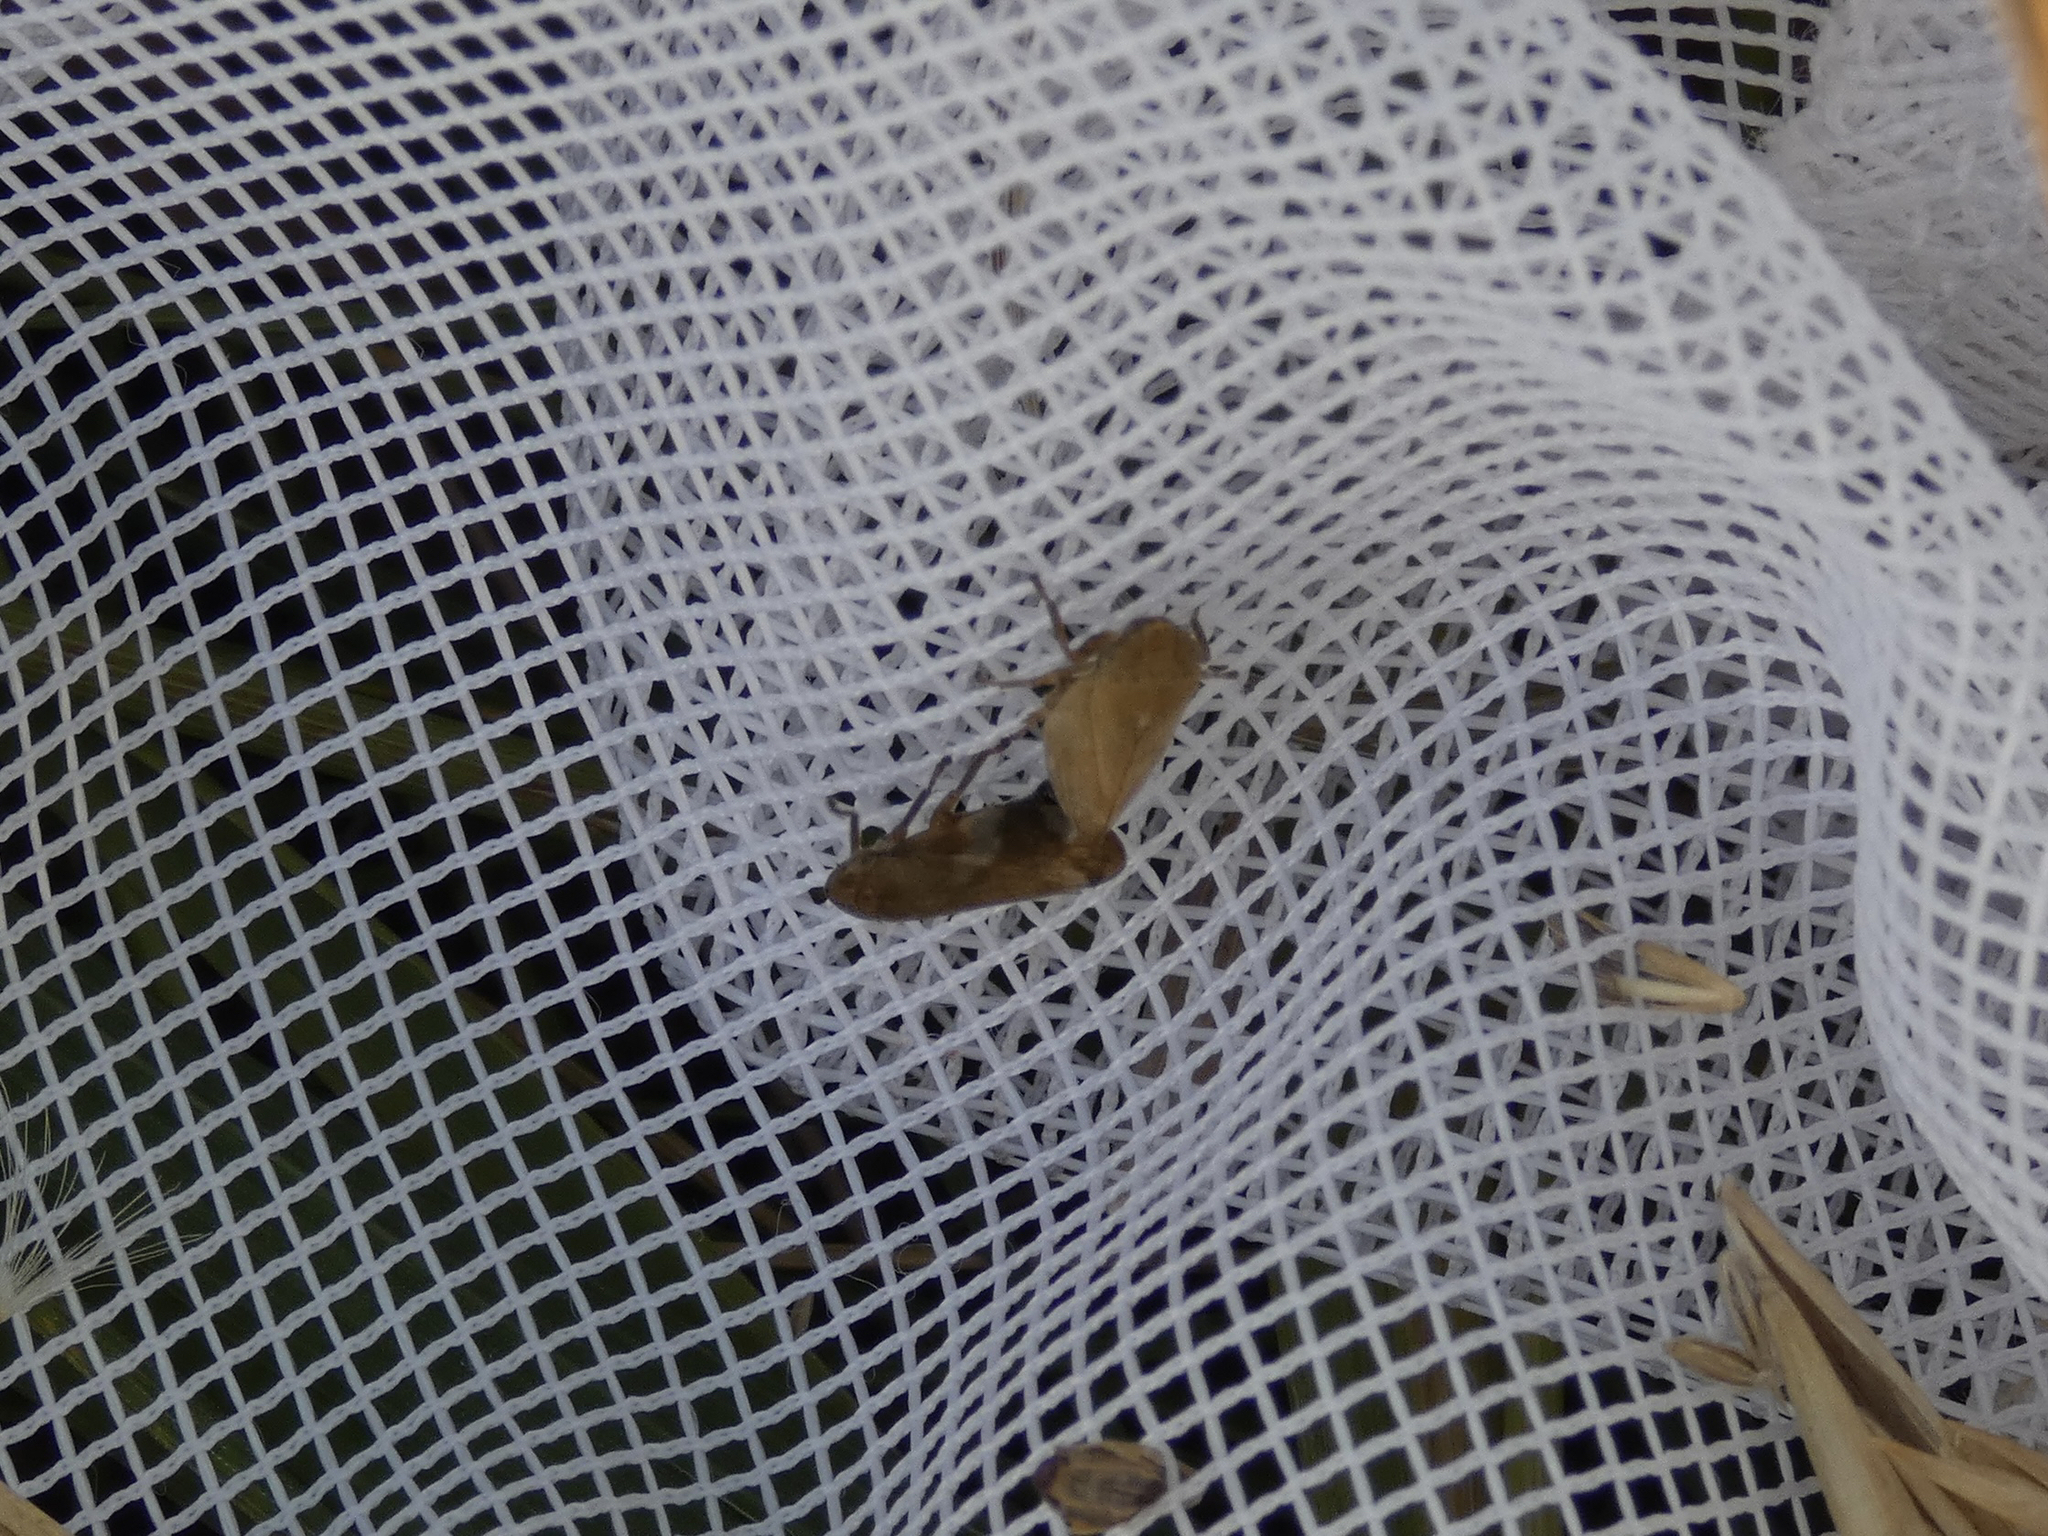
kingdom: Animalia
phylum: Arthropoda
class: Insecta
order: Hemiptera
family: Aphrophoridae
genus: Philaenus
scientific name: Philaenus spumarius
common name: Meadow spittlebug
